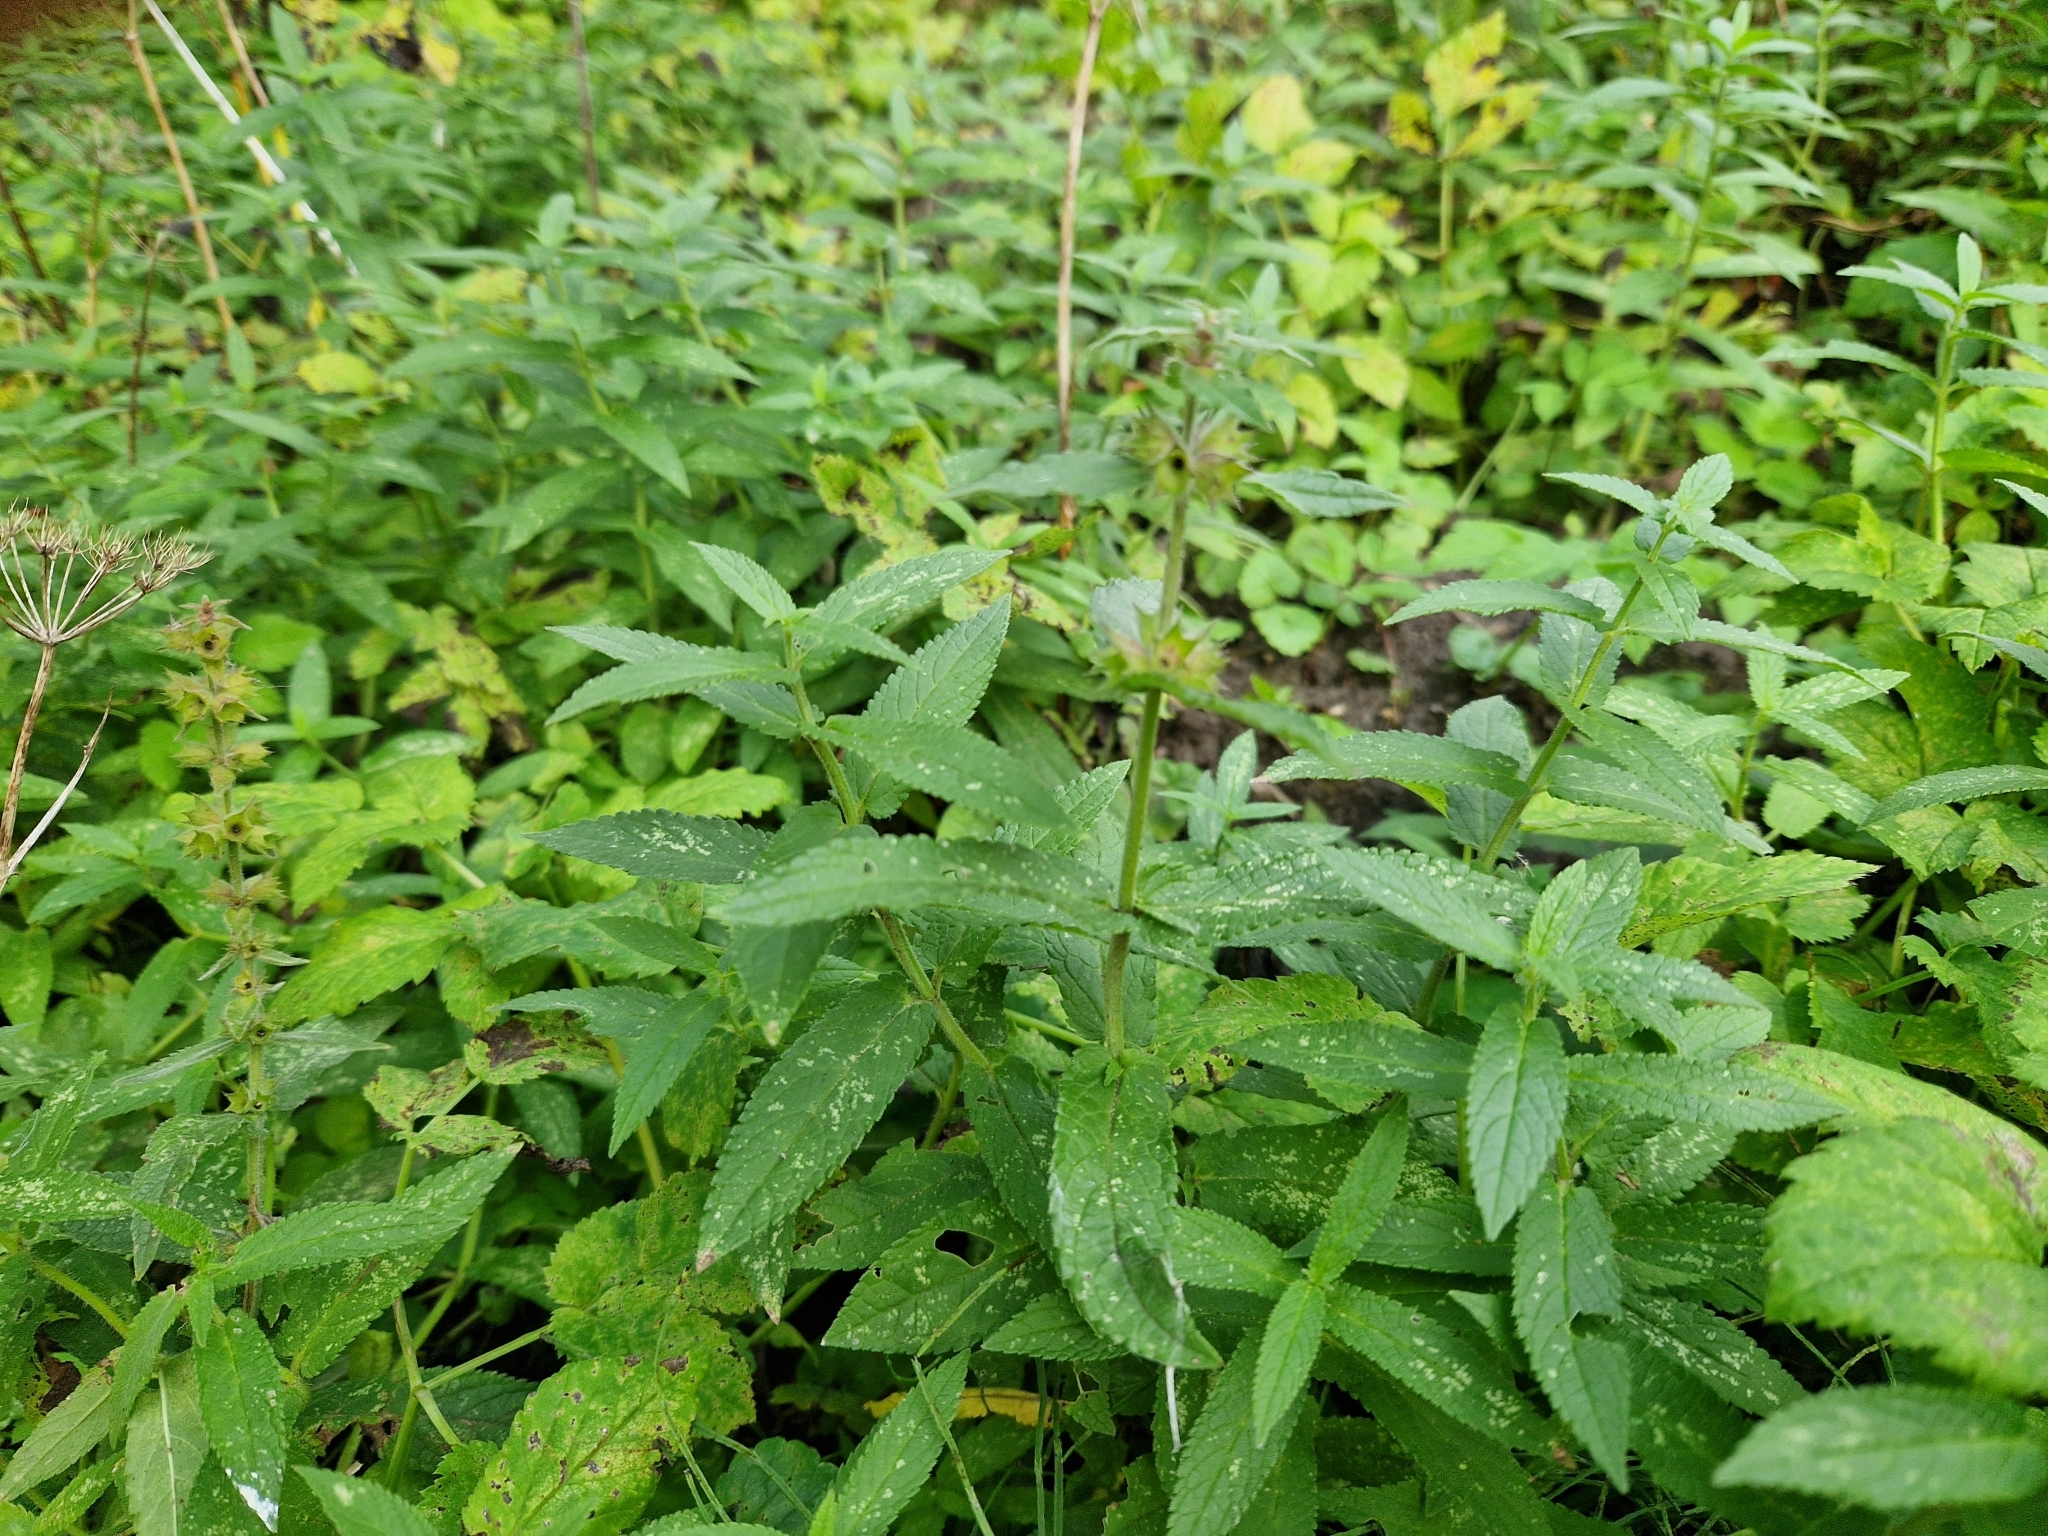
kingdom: Plantae
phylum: Tracheophyta
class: Magnoliopsida
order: Lamiales
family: Lamiaceae
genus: Stachys
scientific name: Stachys palustris
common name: Marsh woundwort
